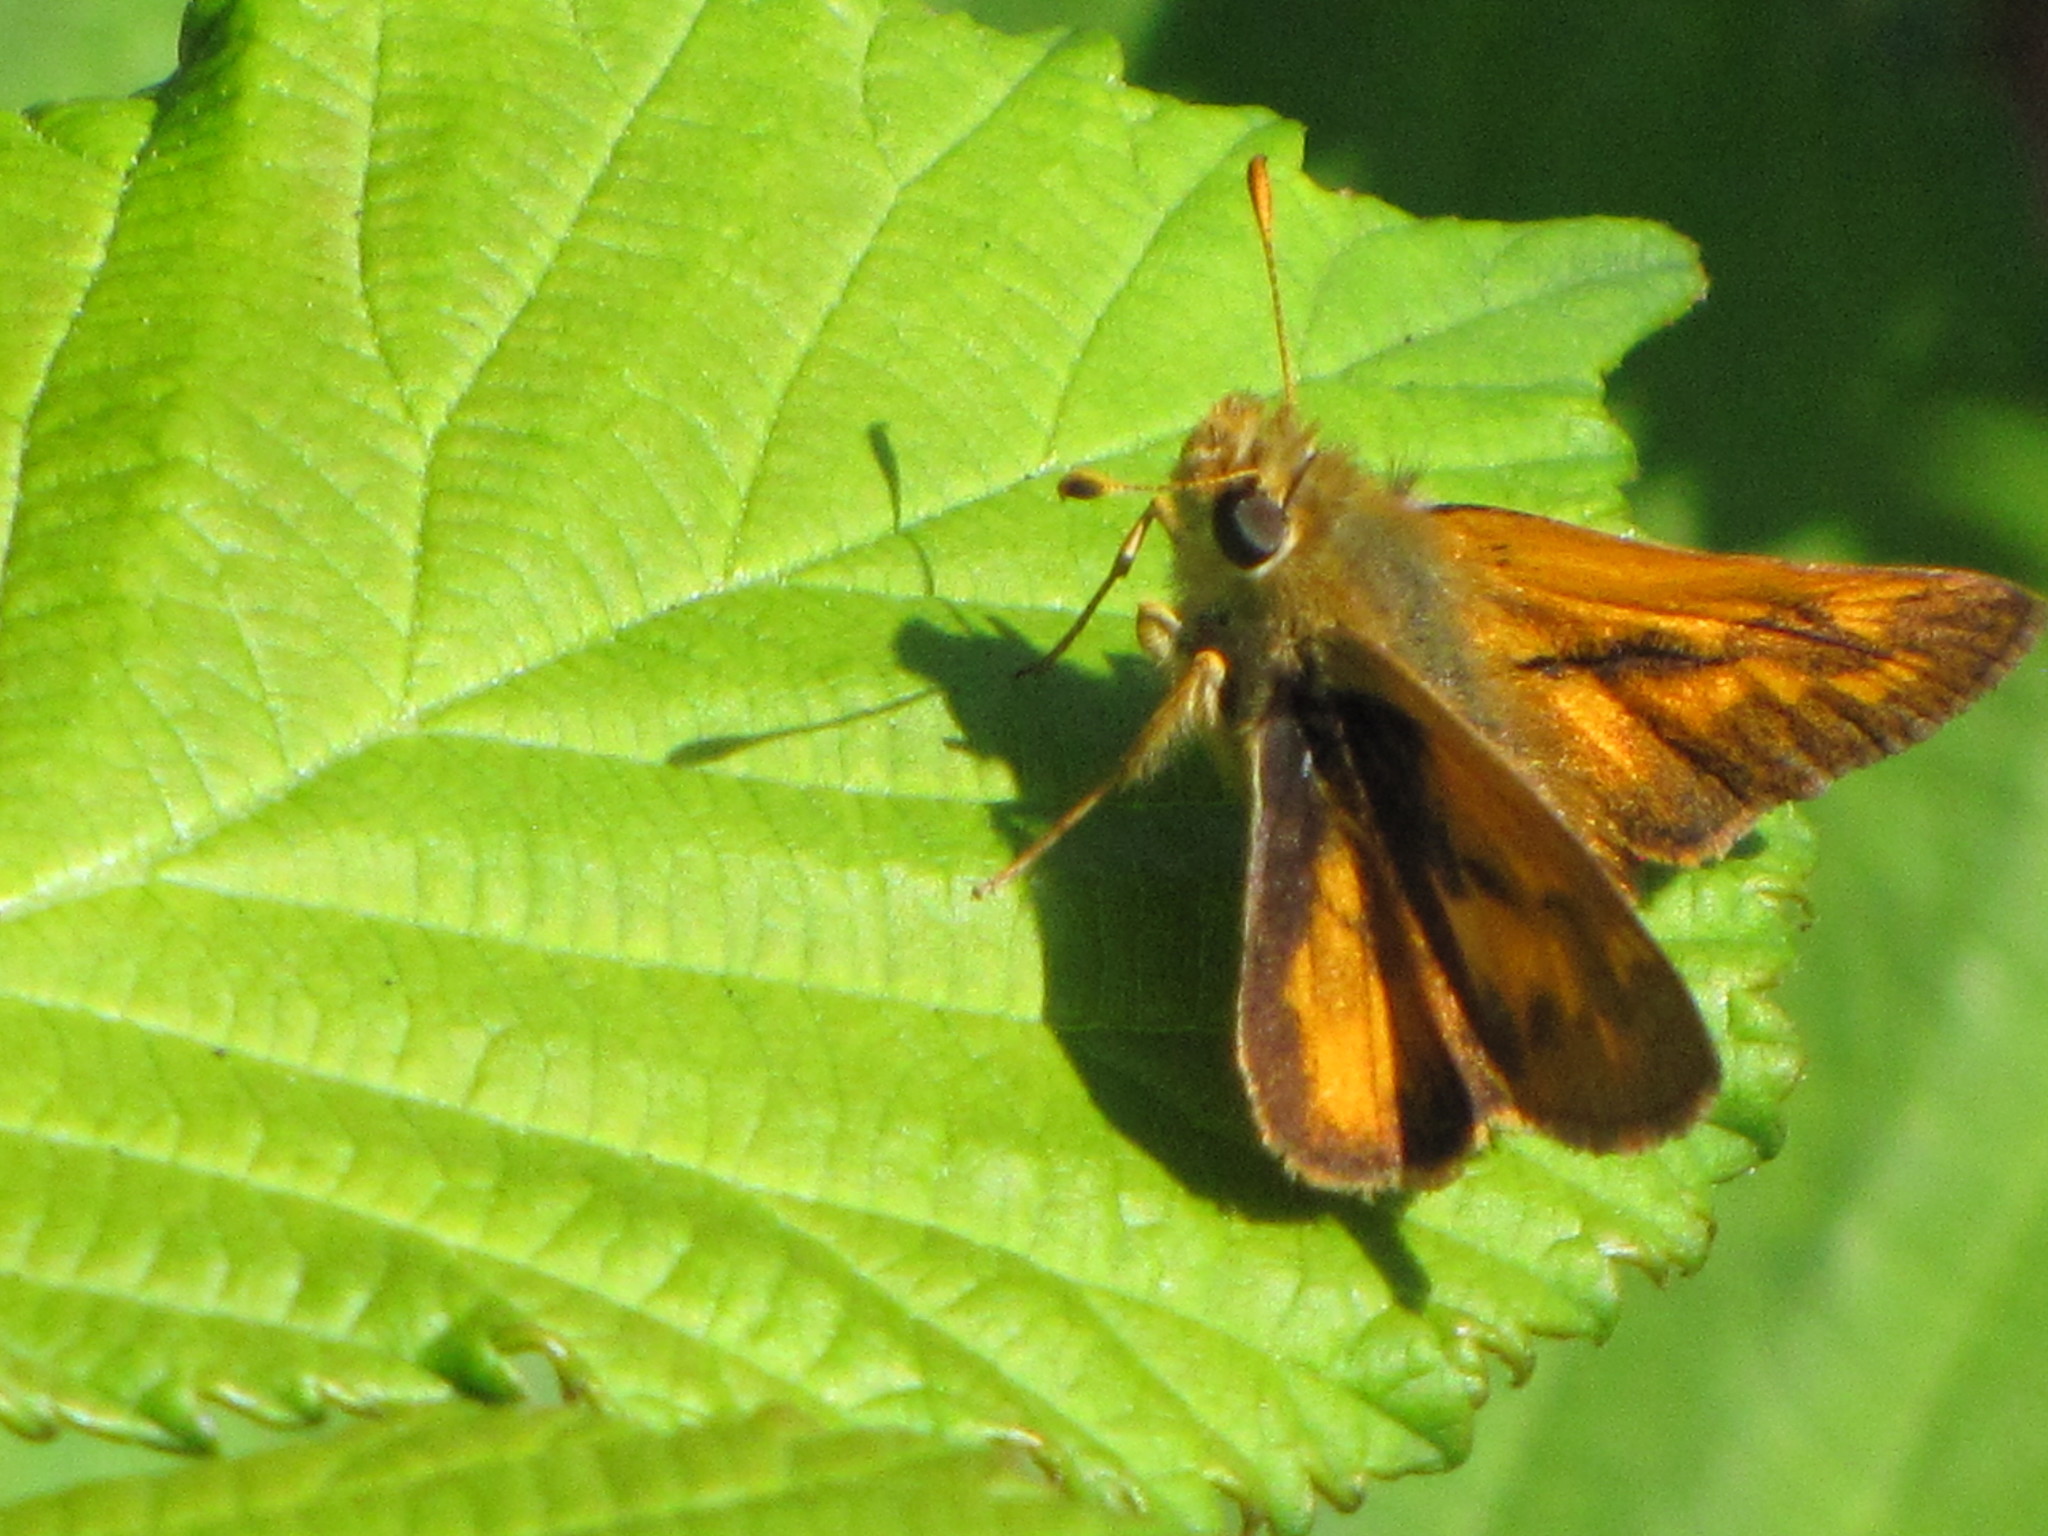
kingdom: Animalia
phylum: Arthropoda
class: Insecta
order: Lepidoptera
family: Hesperiidae
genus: Ochlodes
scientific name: Ochlodes sylvanoides
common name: Woodland skipper
